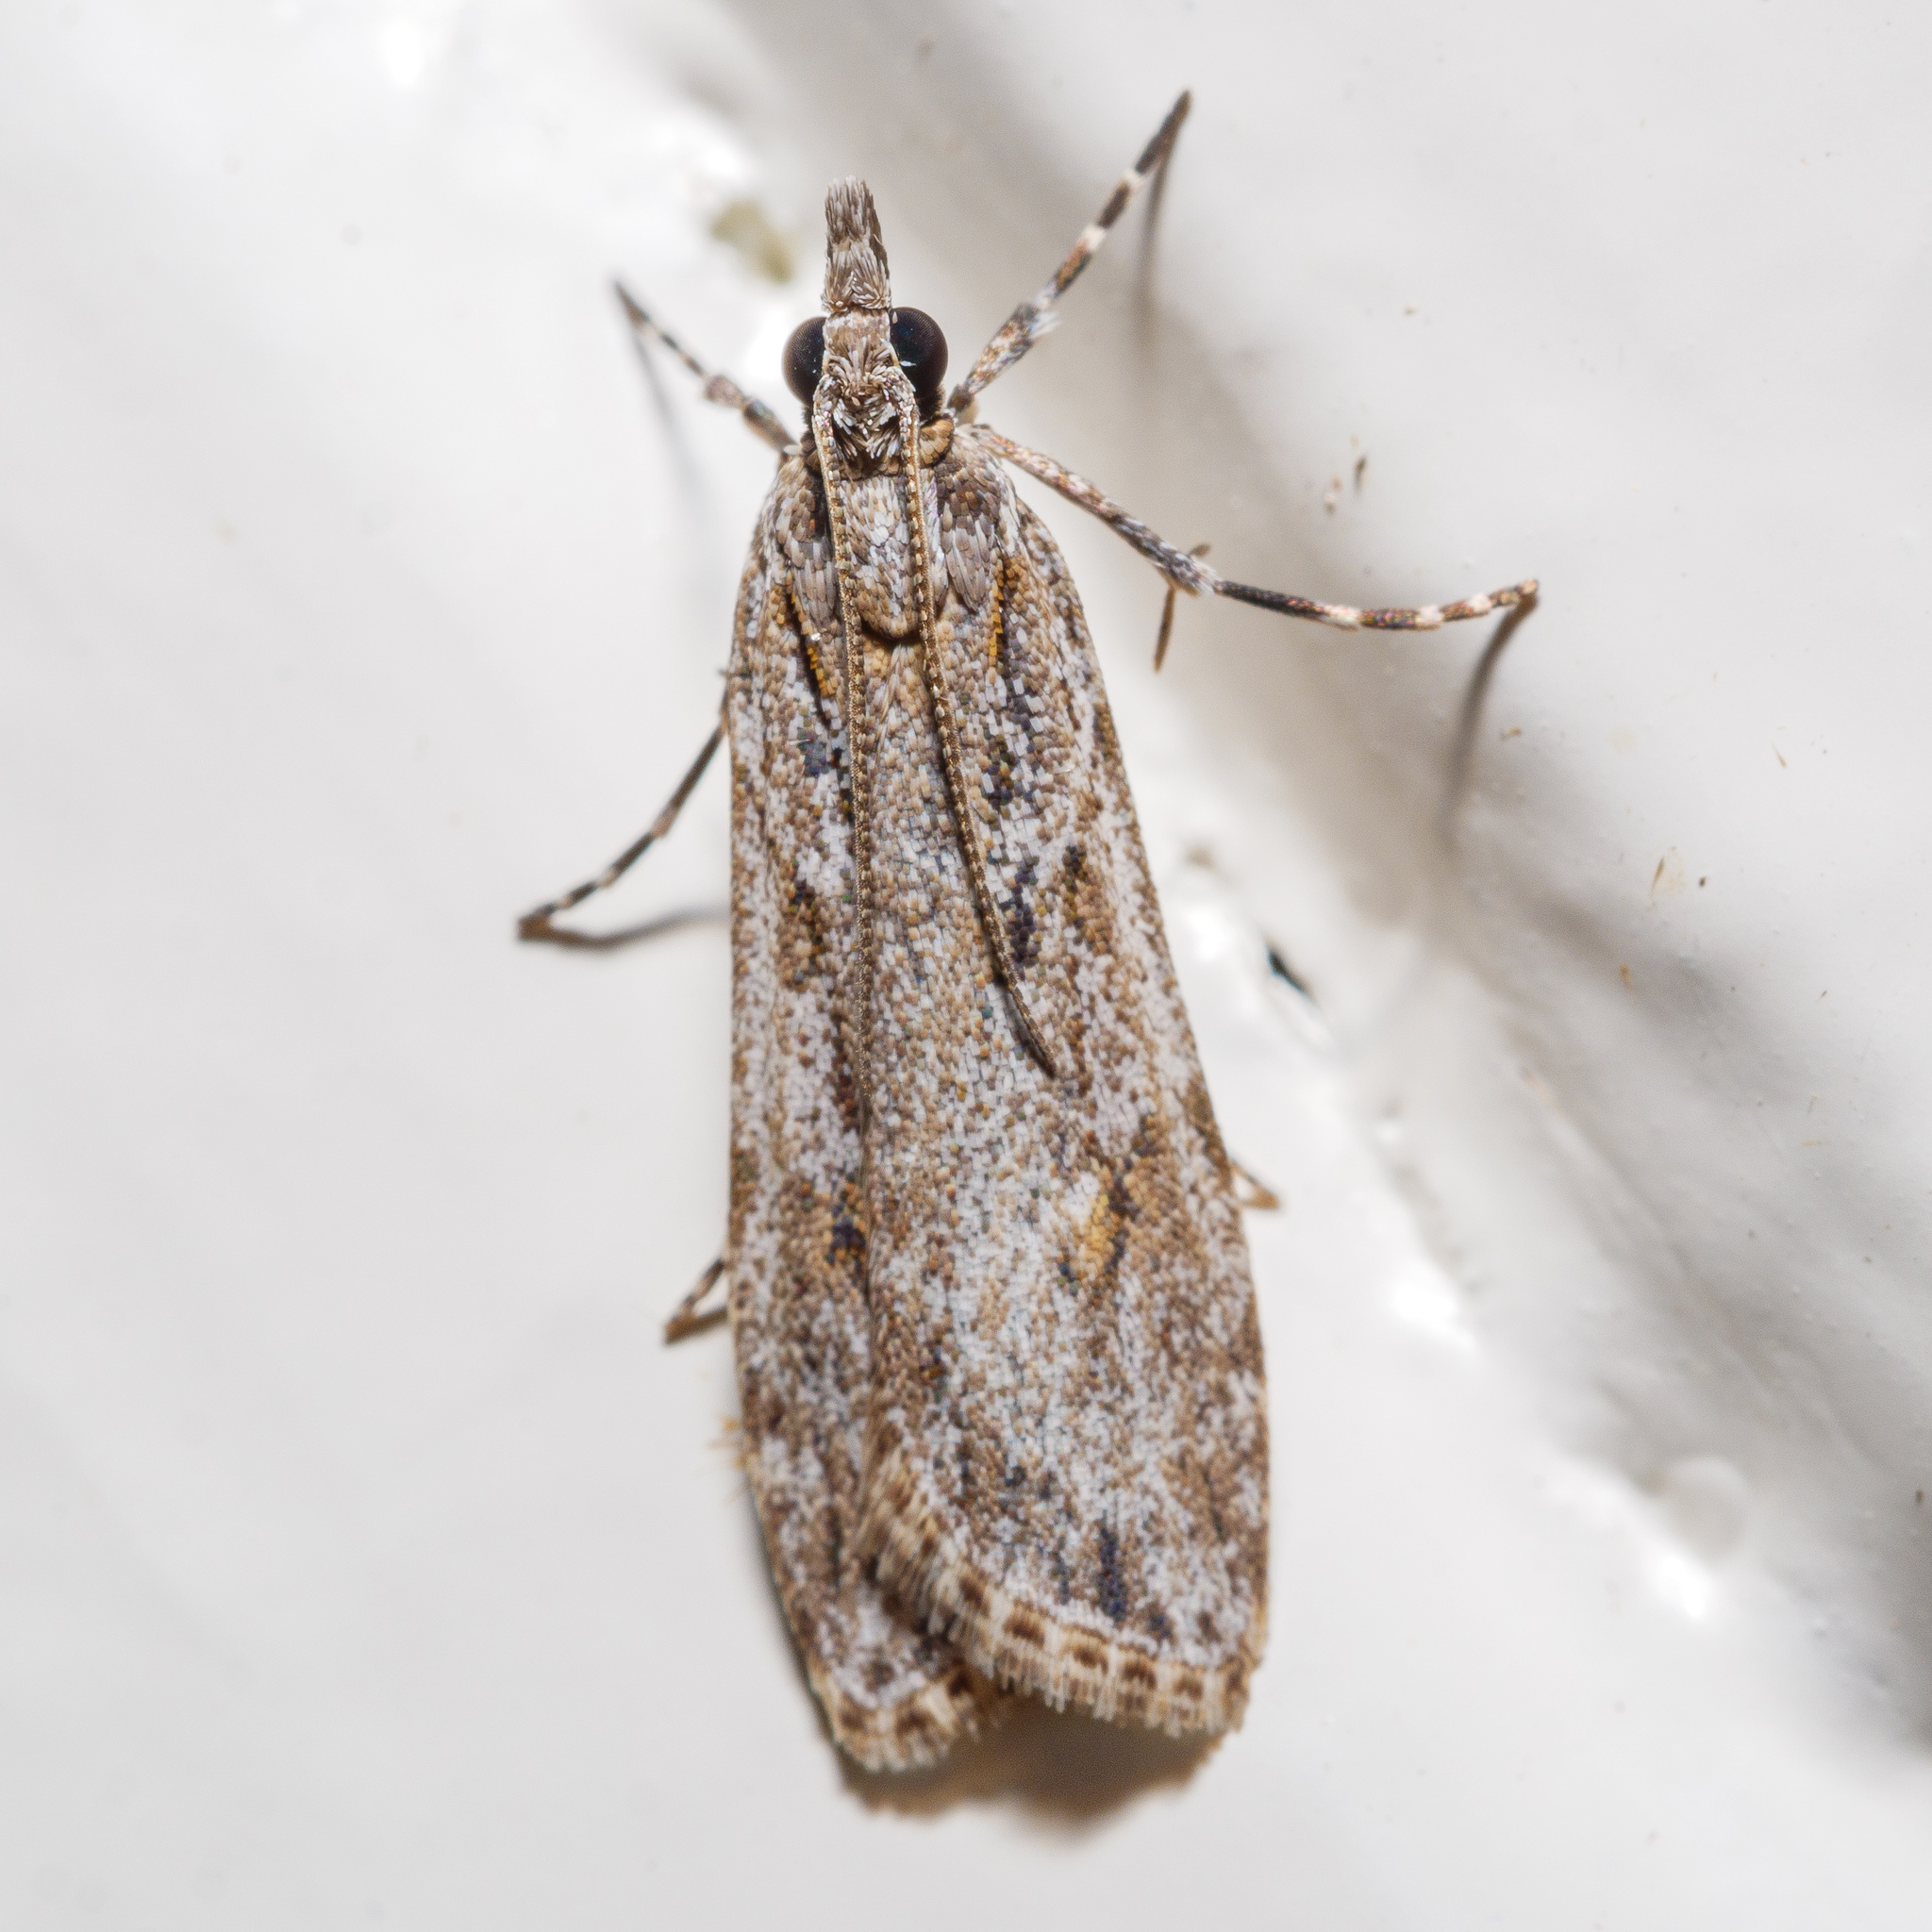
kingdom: Animalia
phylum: Arthropoda
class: Insecta
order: Lepidoptera
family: Crambidae
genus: Scoparia
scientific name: Scoparia chalicodes
